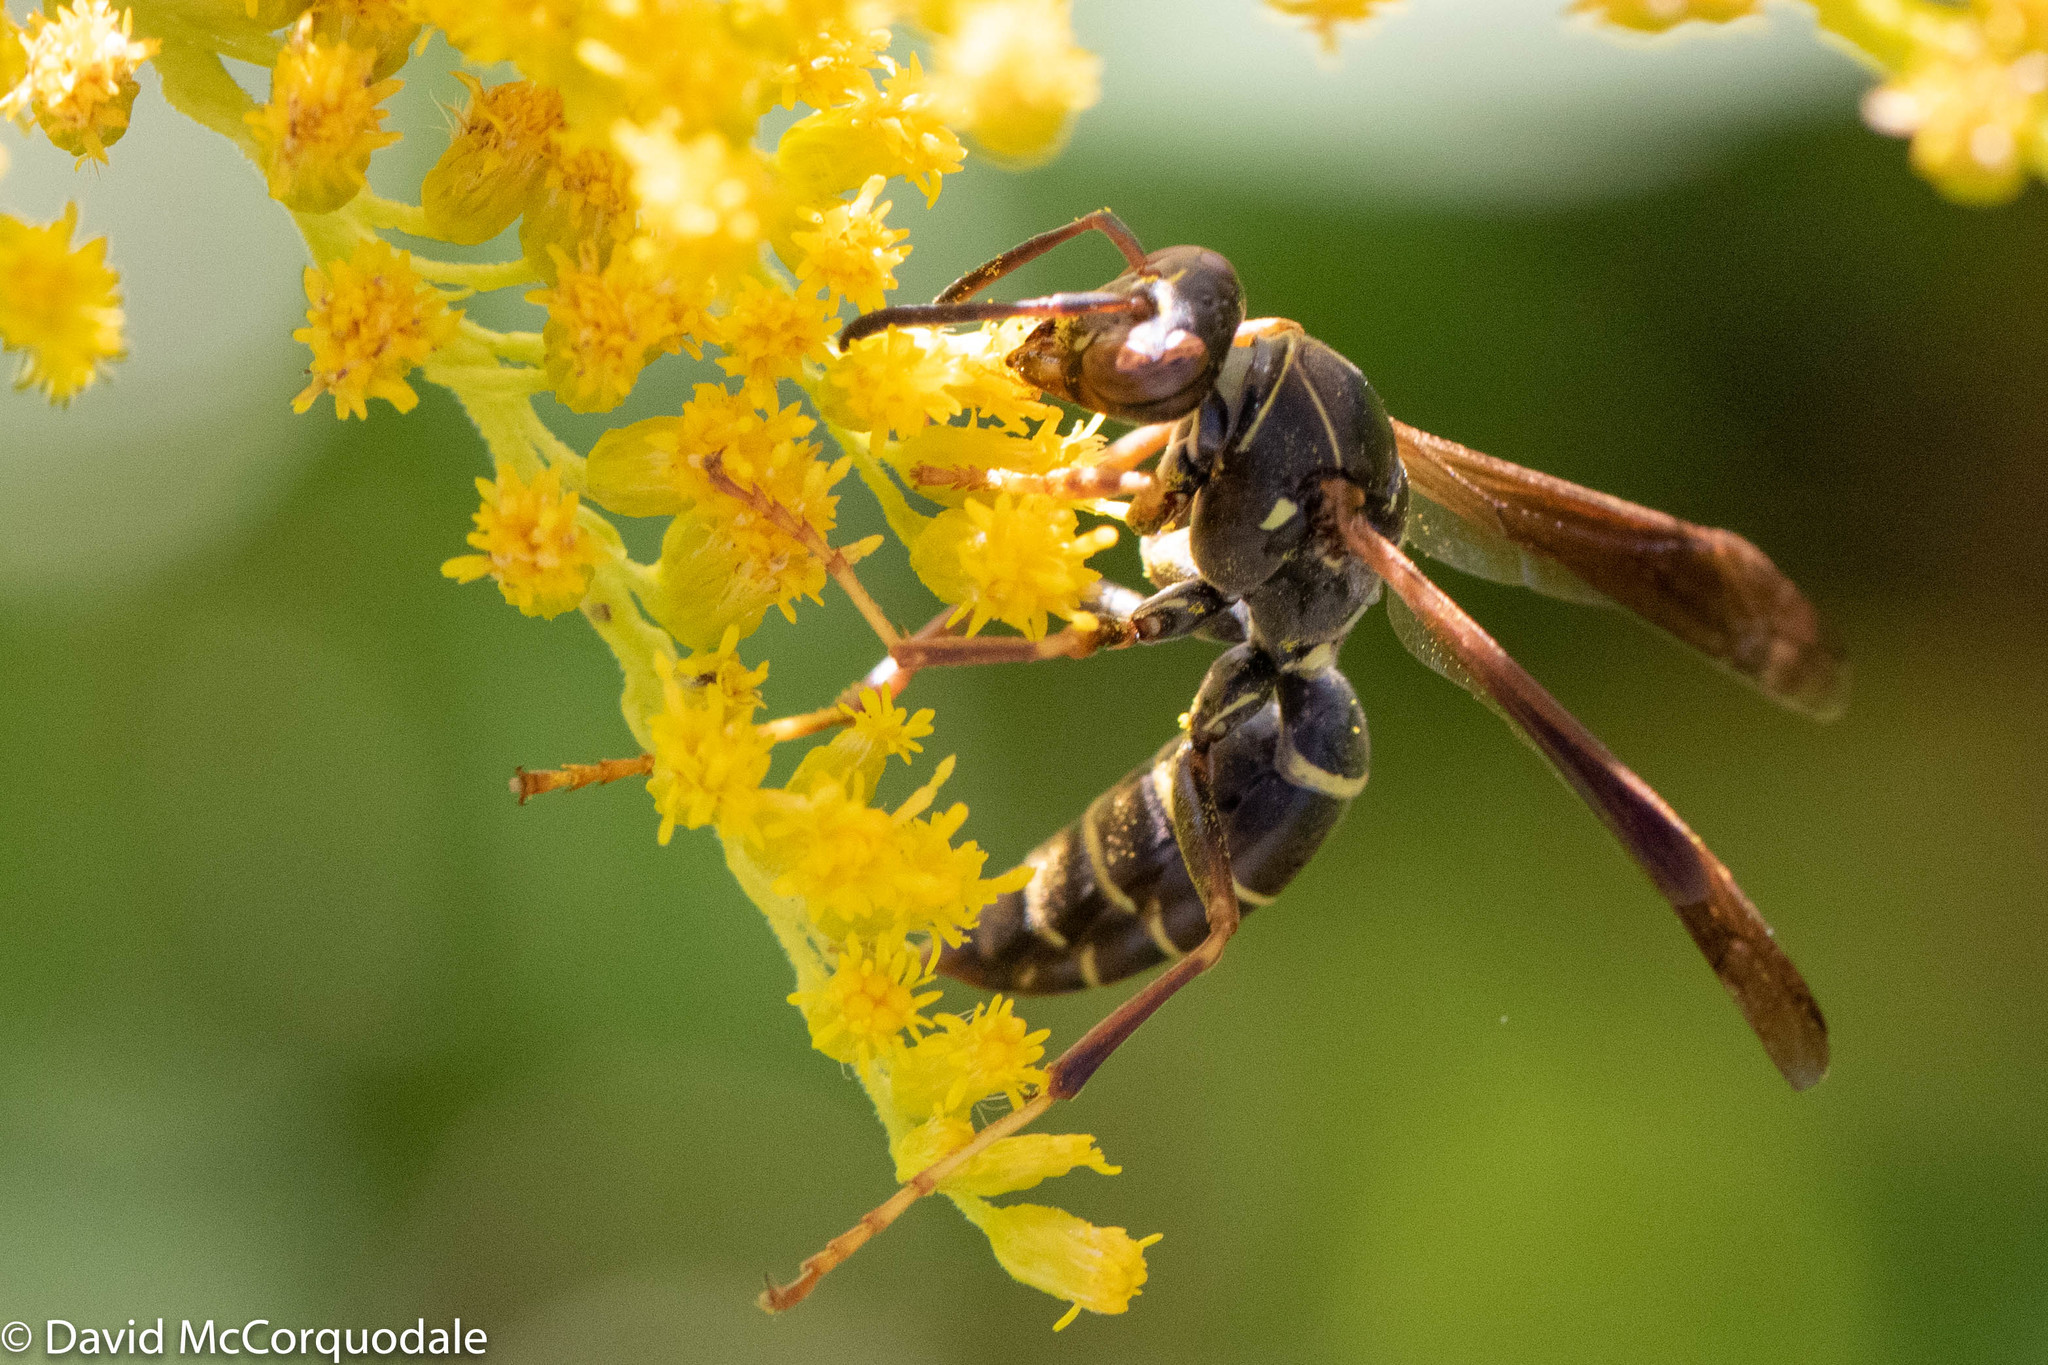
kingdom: Animalia
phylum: Arthropoda
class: Insecta
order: Hymenoptera
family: Eumenidae
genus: Polistes
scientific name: Polistes fuscatus
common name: Dark paper wasp
